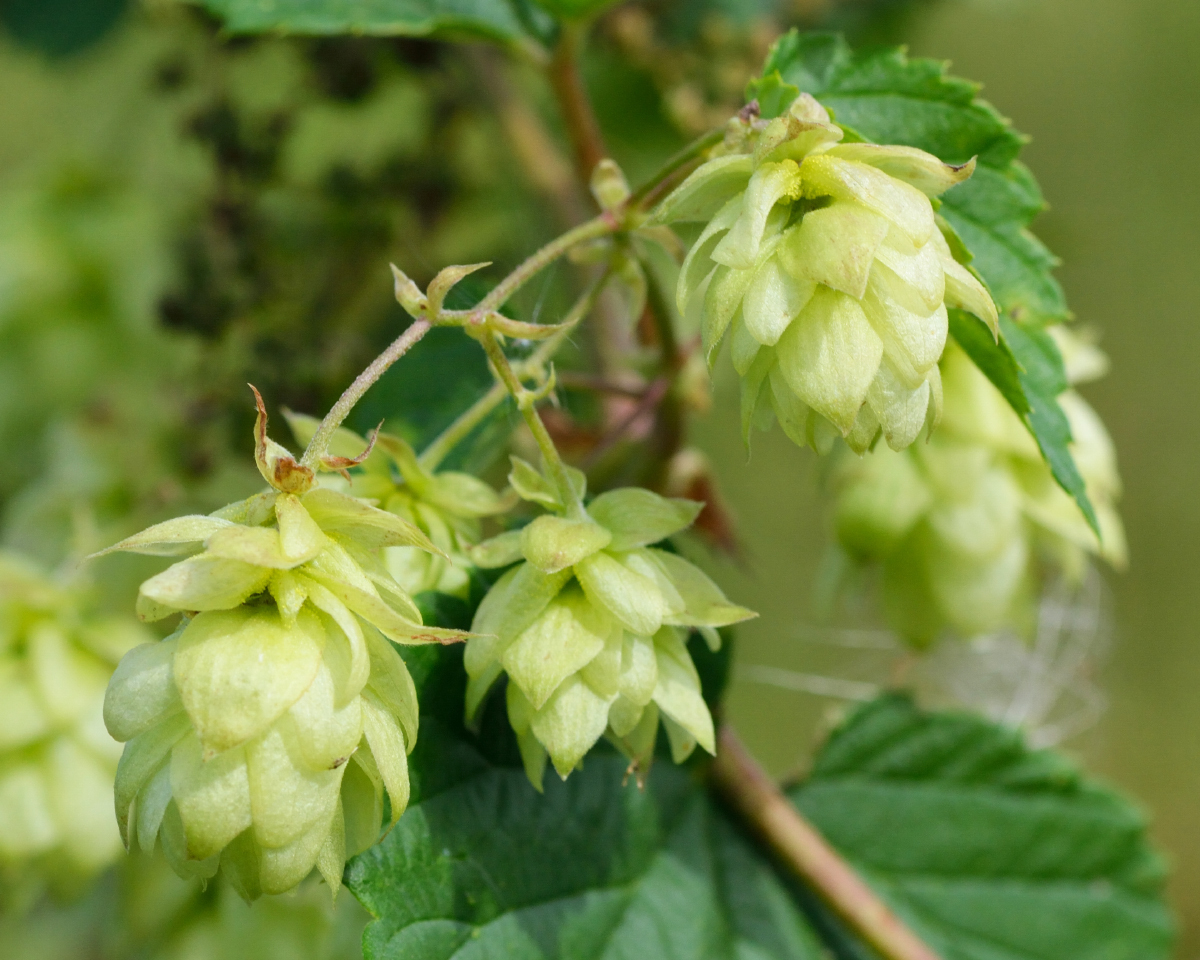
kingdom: Plantae
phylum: Tracheophyta
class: Magnoliopsida
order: Rosales
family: Cannabaceae
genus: Humulus
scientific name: Humulus lupulus
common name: Hop
